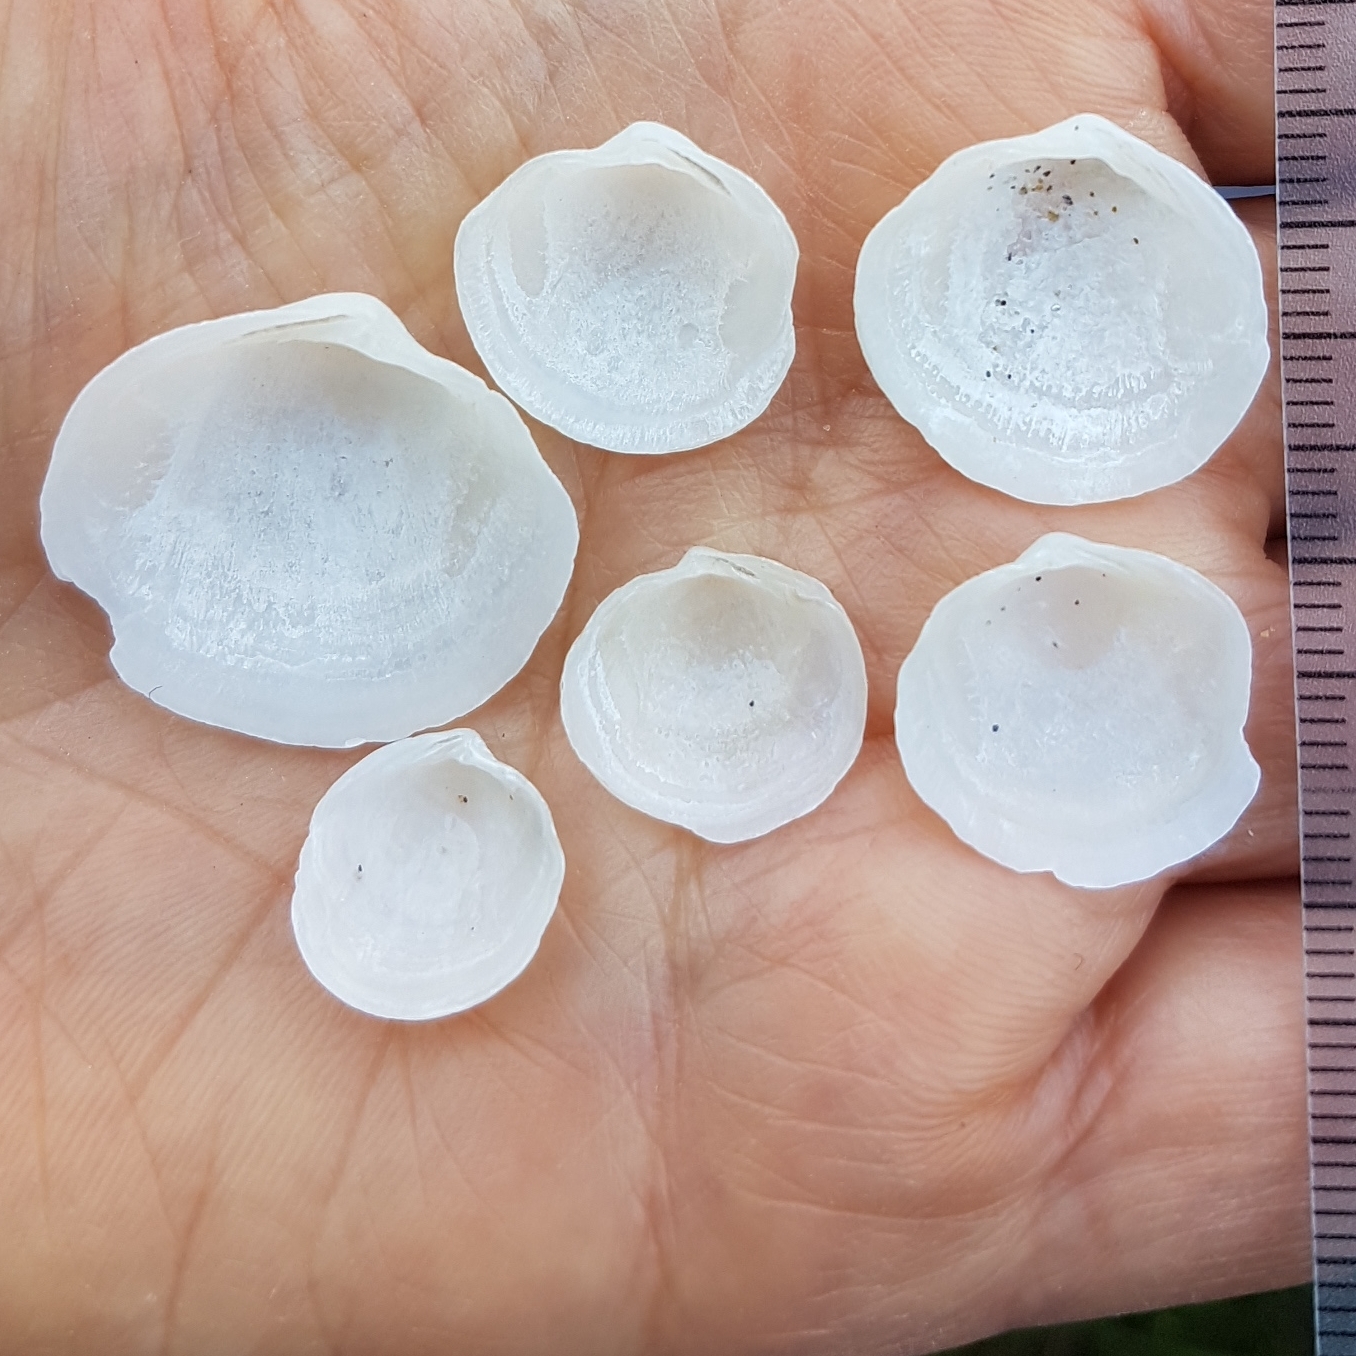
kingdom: Animalia
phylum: Mollusca
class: Bivalvia
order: Lucinida
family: Lucinidae
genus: Loripes
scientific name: Loripes orbiculatus
